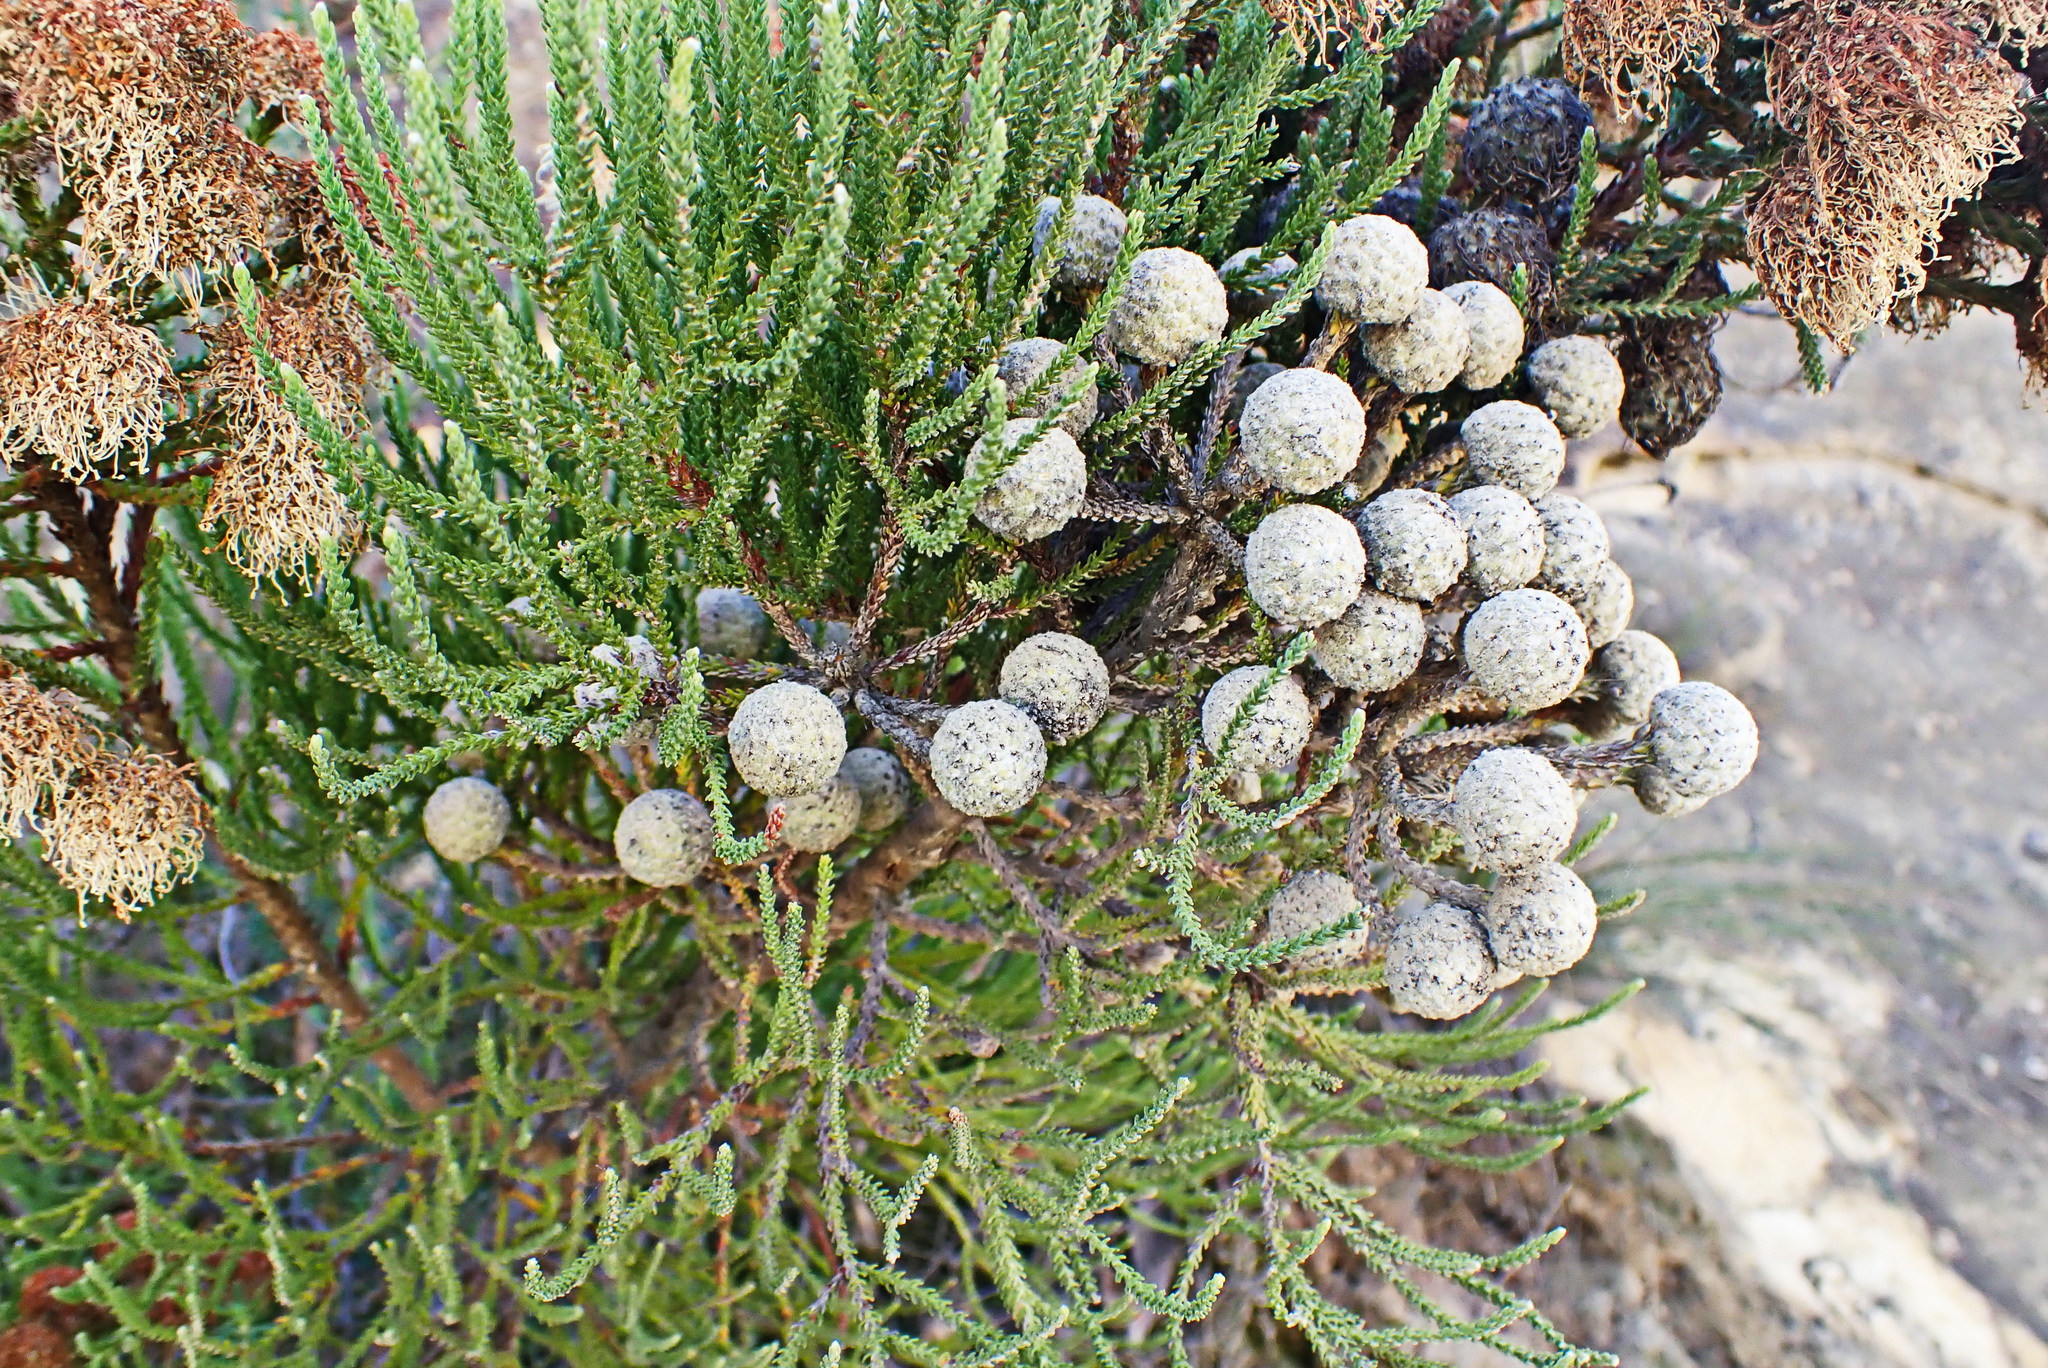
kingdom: Plantae
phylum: Tracheophyta
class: Magnoliopsida
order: Bruniales
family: Bruniaceae
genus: Brunia
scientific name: Brunia noduliflora
